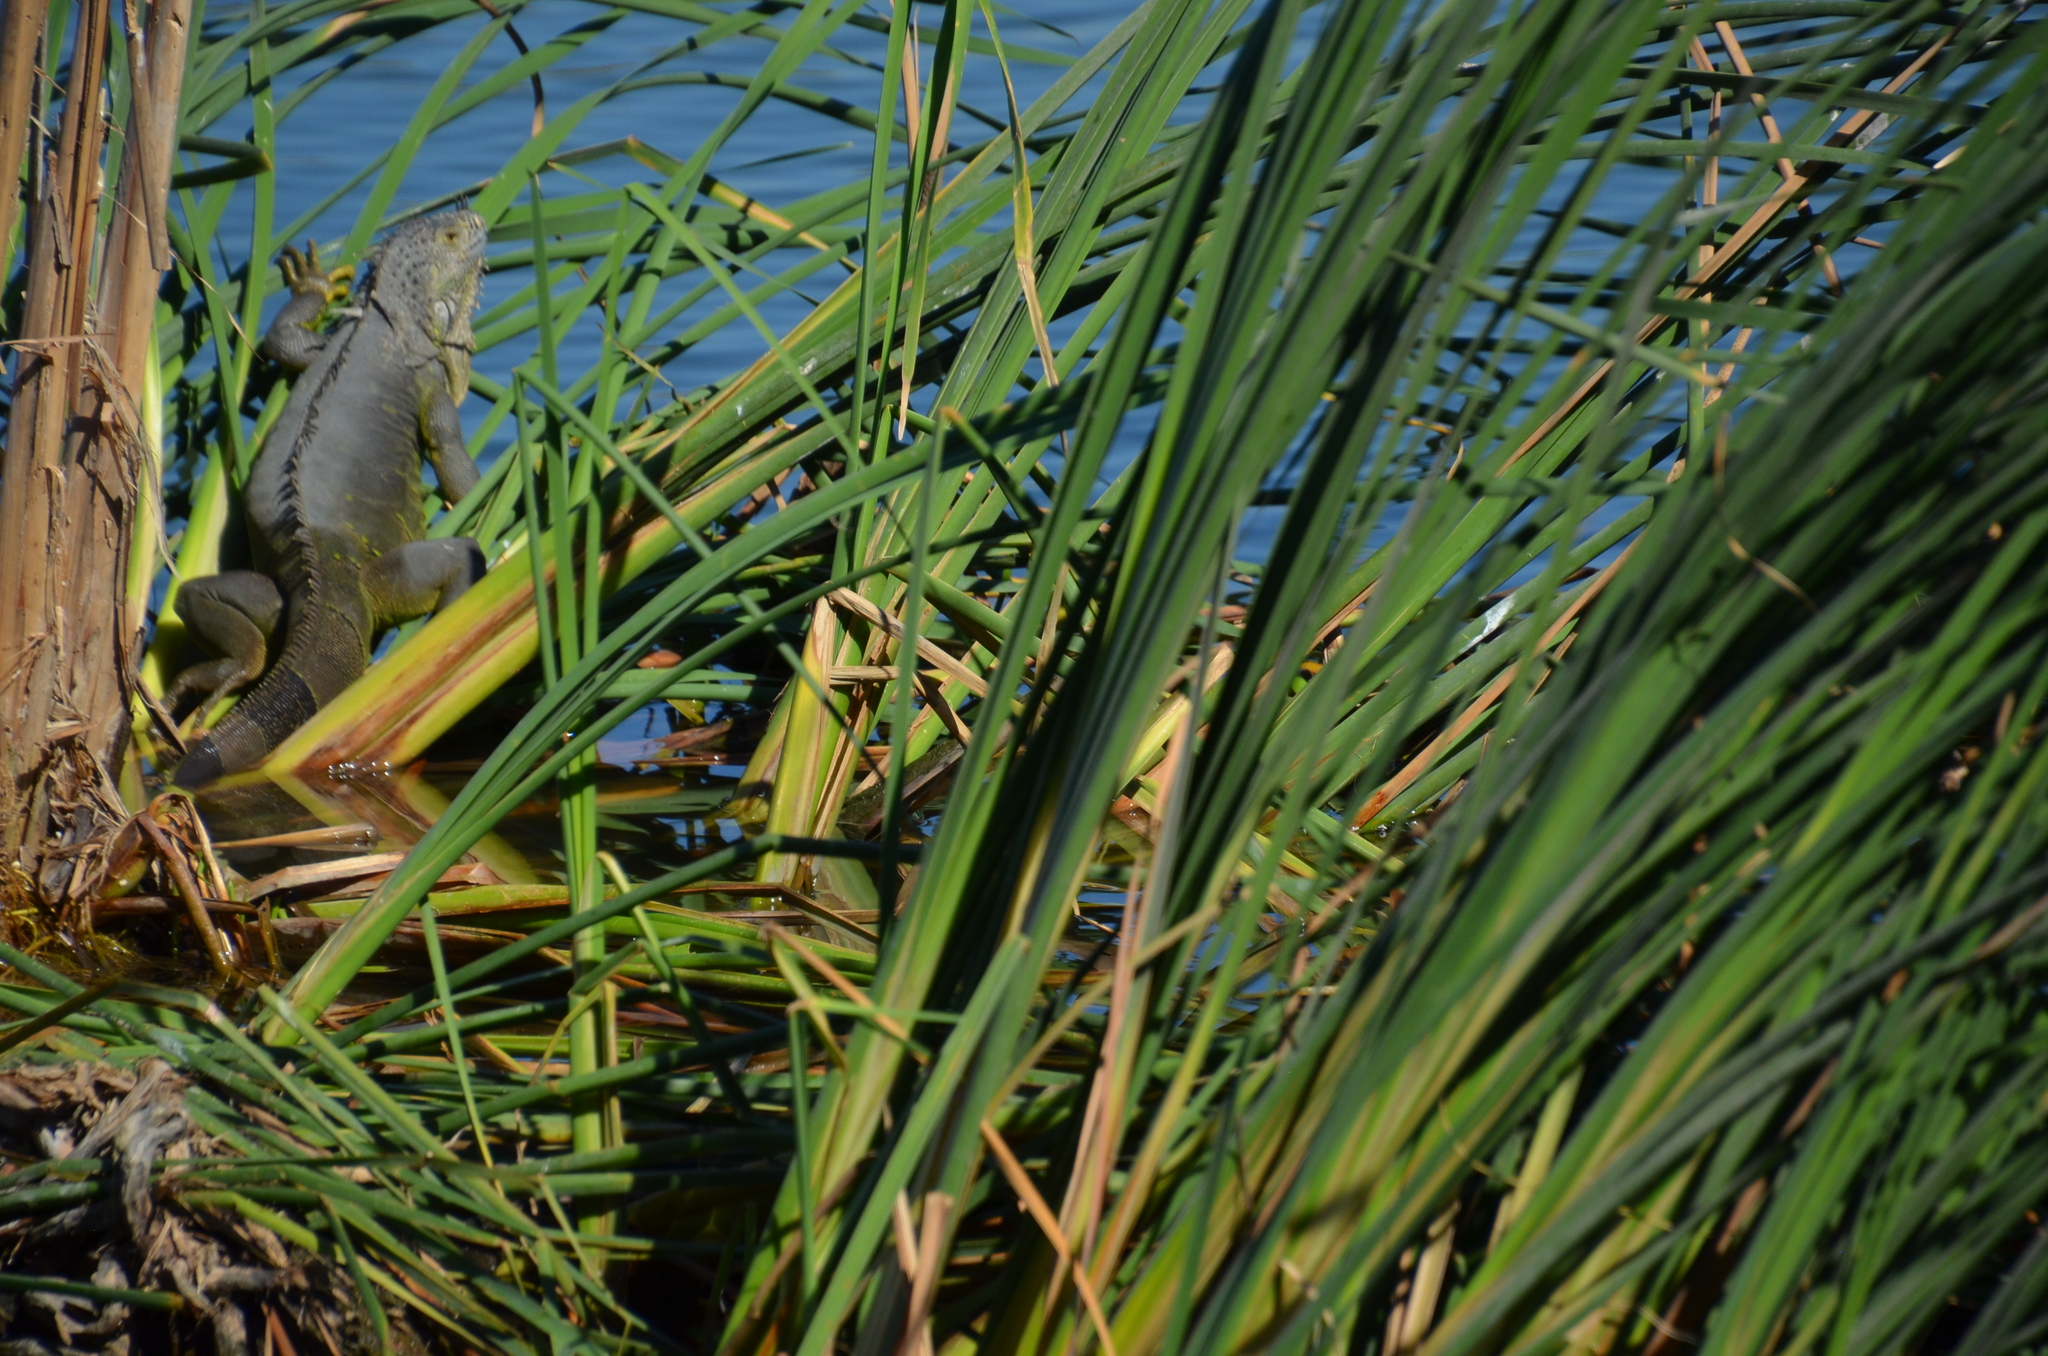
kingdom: Animalia
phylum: Chordata
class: Squamata
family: Iguanidae
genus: Iguana
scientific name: Iguana iguana
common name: Green iguana
